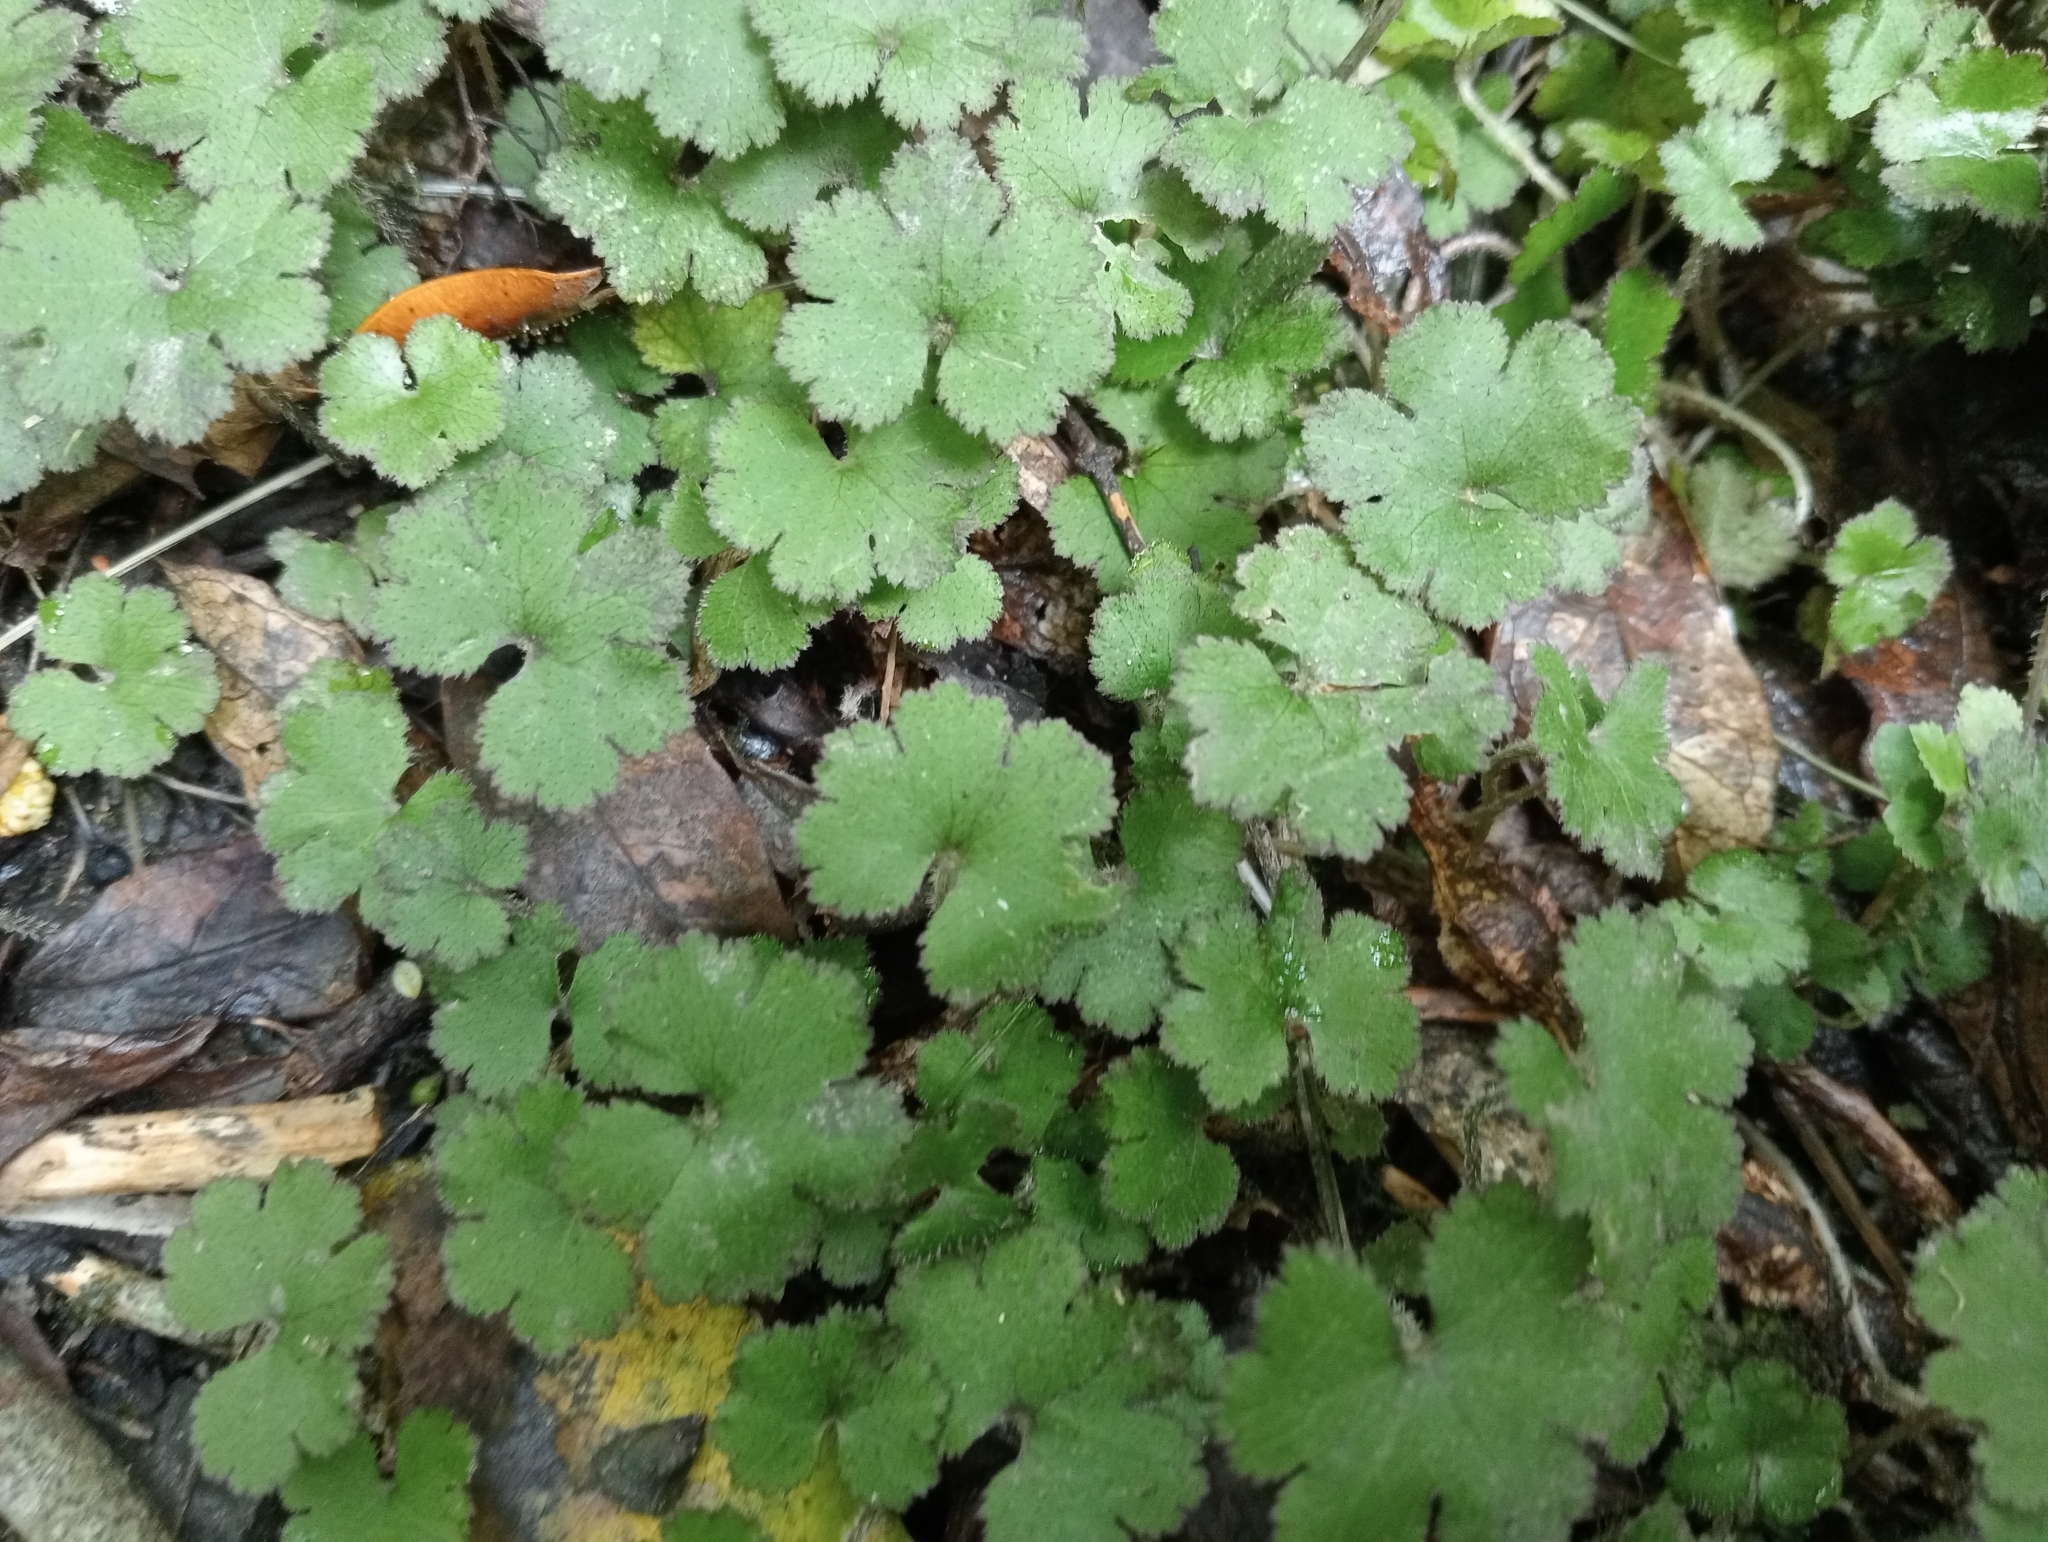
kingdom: Plantae
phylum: Tracheophyta
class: Magnoliopsida
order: Apiales
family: Araliaceae
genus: Hydrocotyle
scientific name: Hydrocotyle elongata
